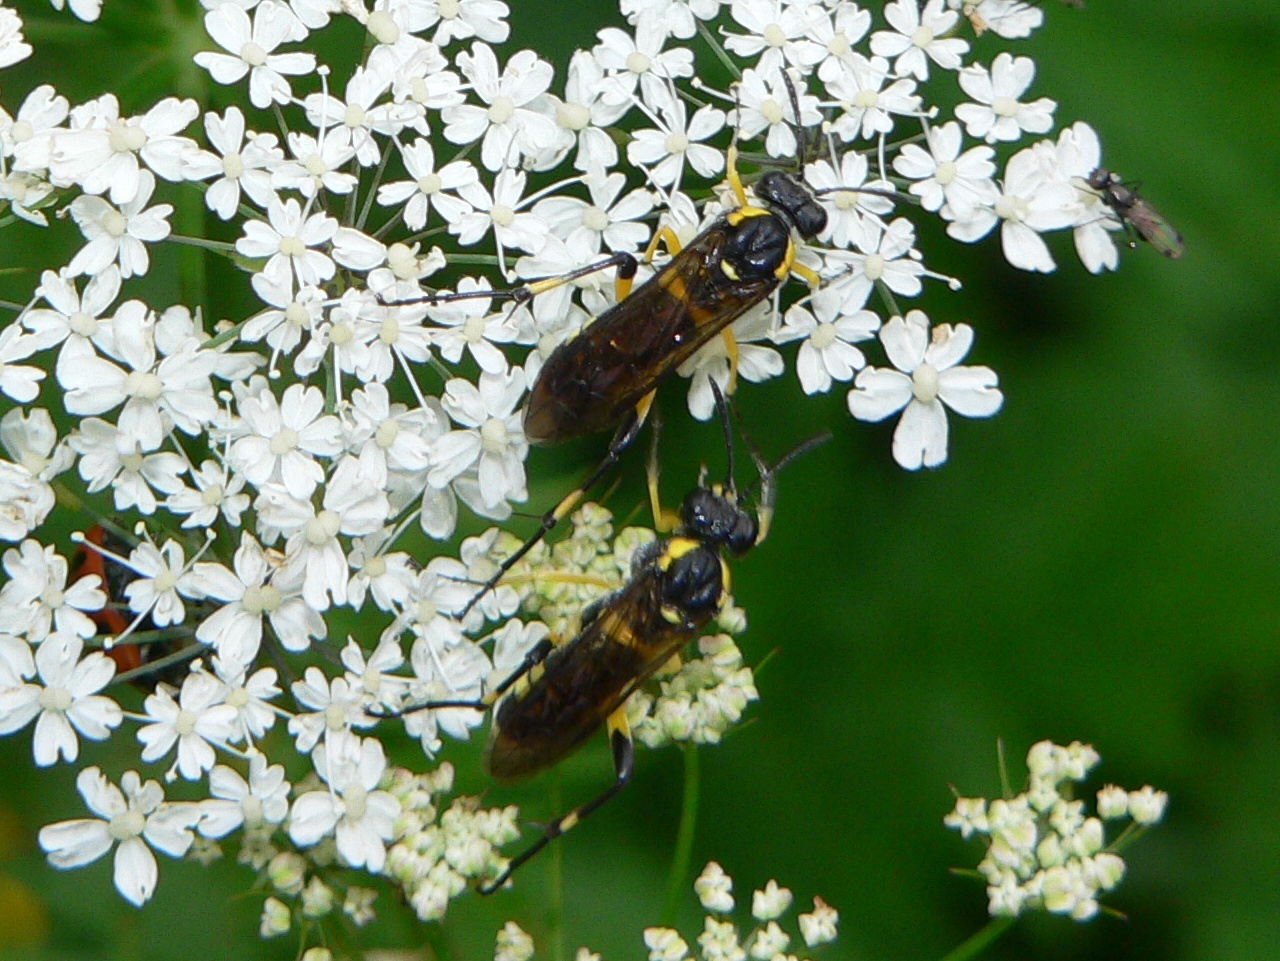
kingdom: Animalia
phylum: Arthropoda
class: Insecta
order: Hymenoptera
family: Tenthredinidae
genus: Macrophya
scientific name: Macrophya montana
